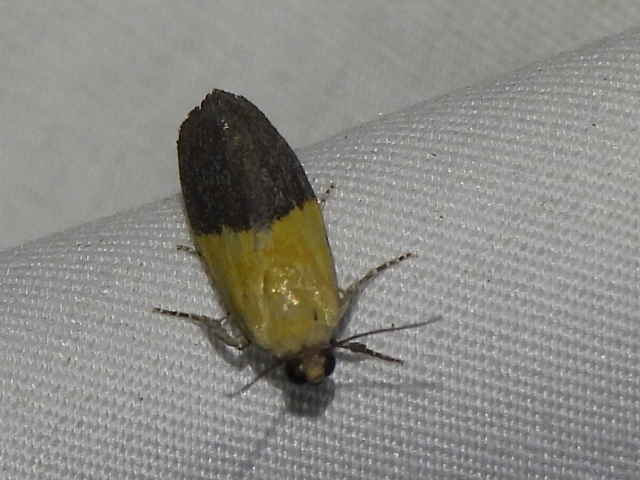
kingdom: Animalia
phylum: Arthropoda
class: Insecta
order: Lepidoptera
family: Noctuidae
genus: Acontia
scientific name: Acontia semiflava
